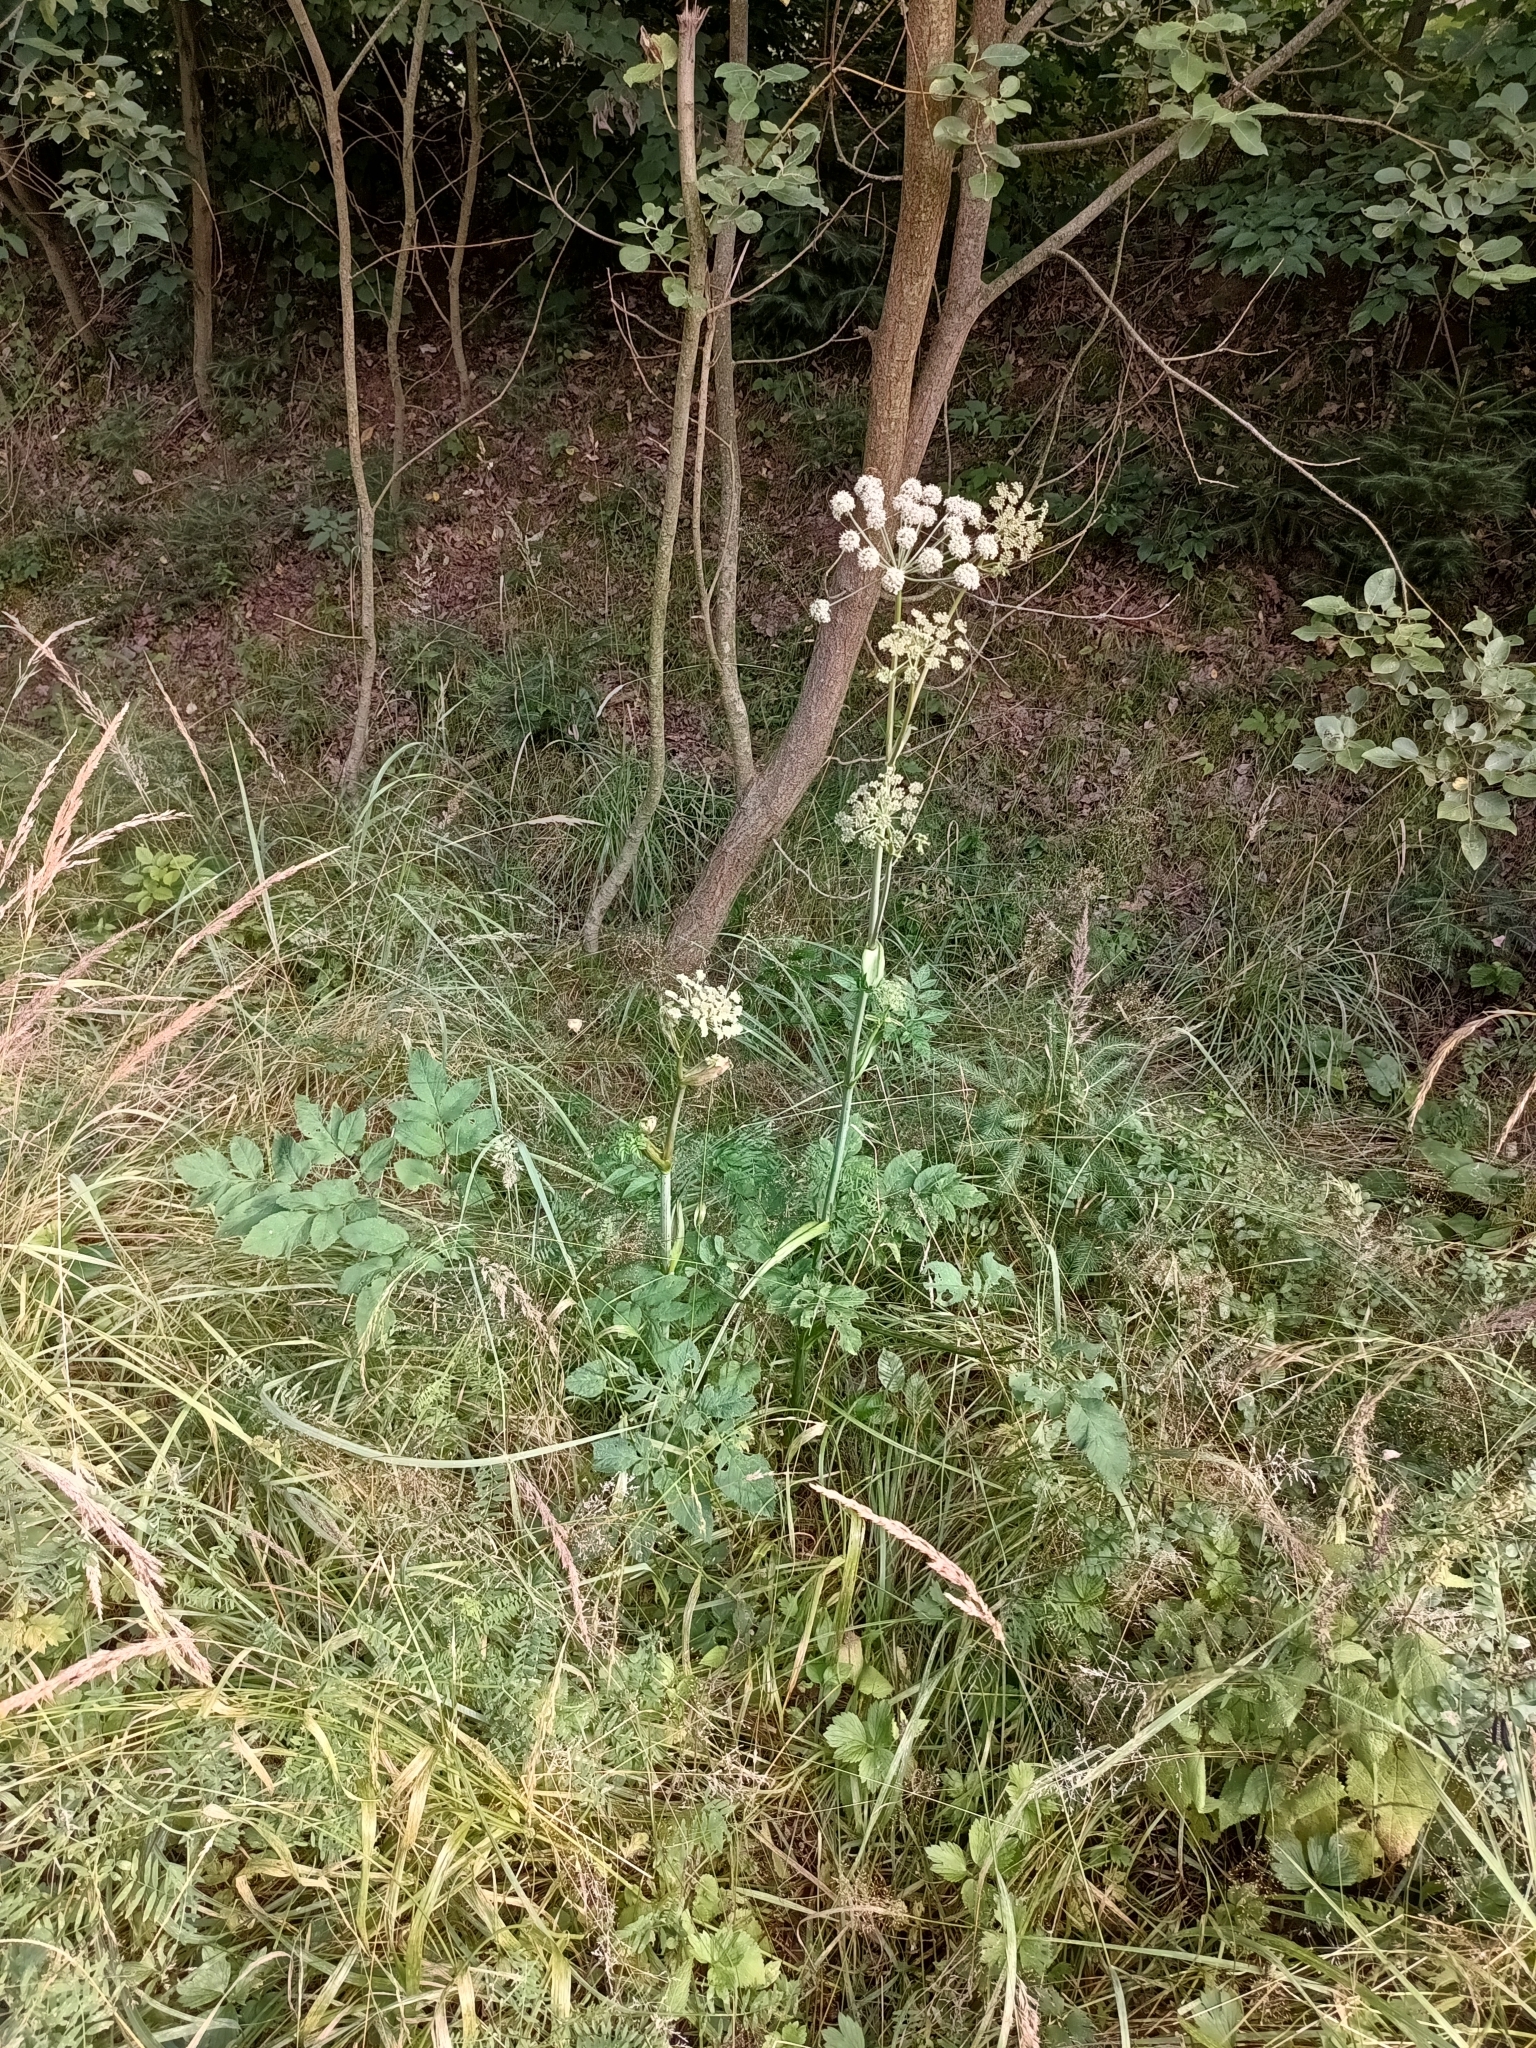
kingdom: Plantae
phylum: Tracheophyta
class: Magnoliopsida
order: Apiales
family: Apiaceae
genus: Angelica
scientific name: Angelica sylvestris
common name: Wild angelica
